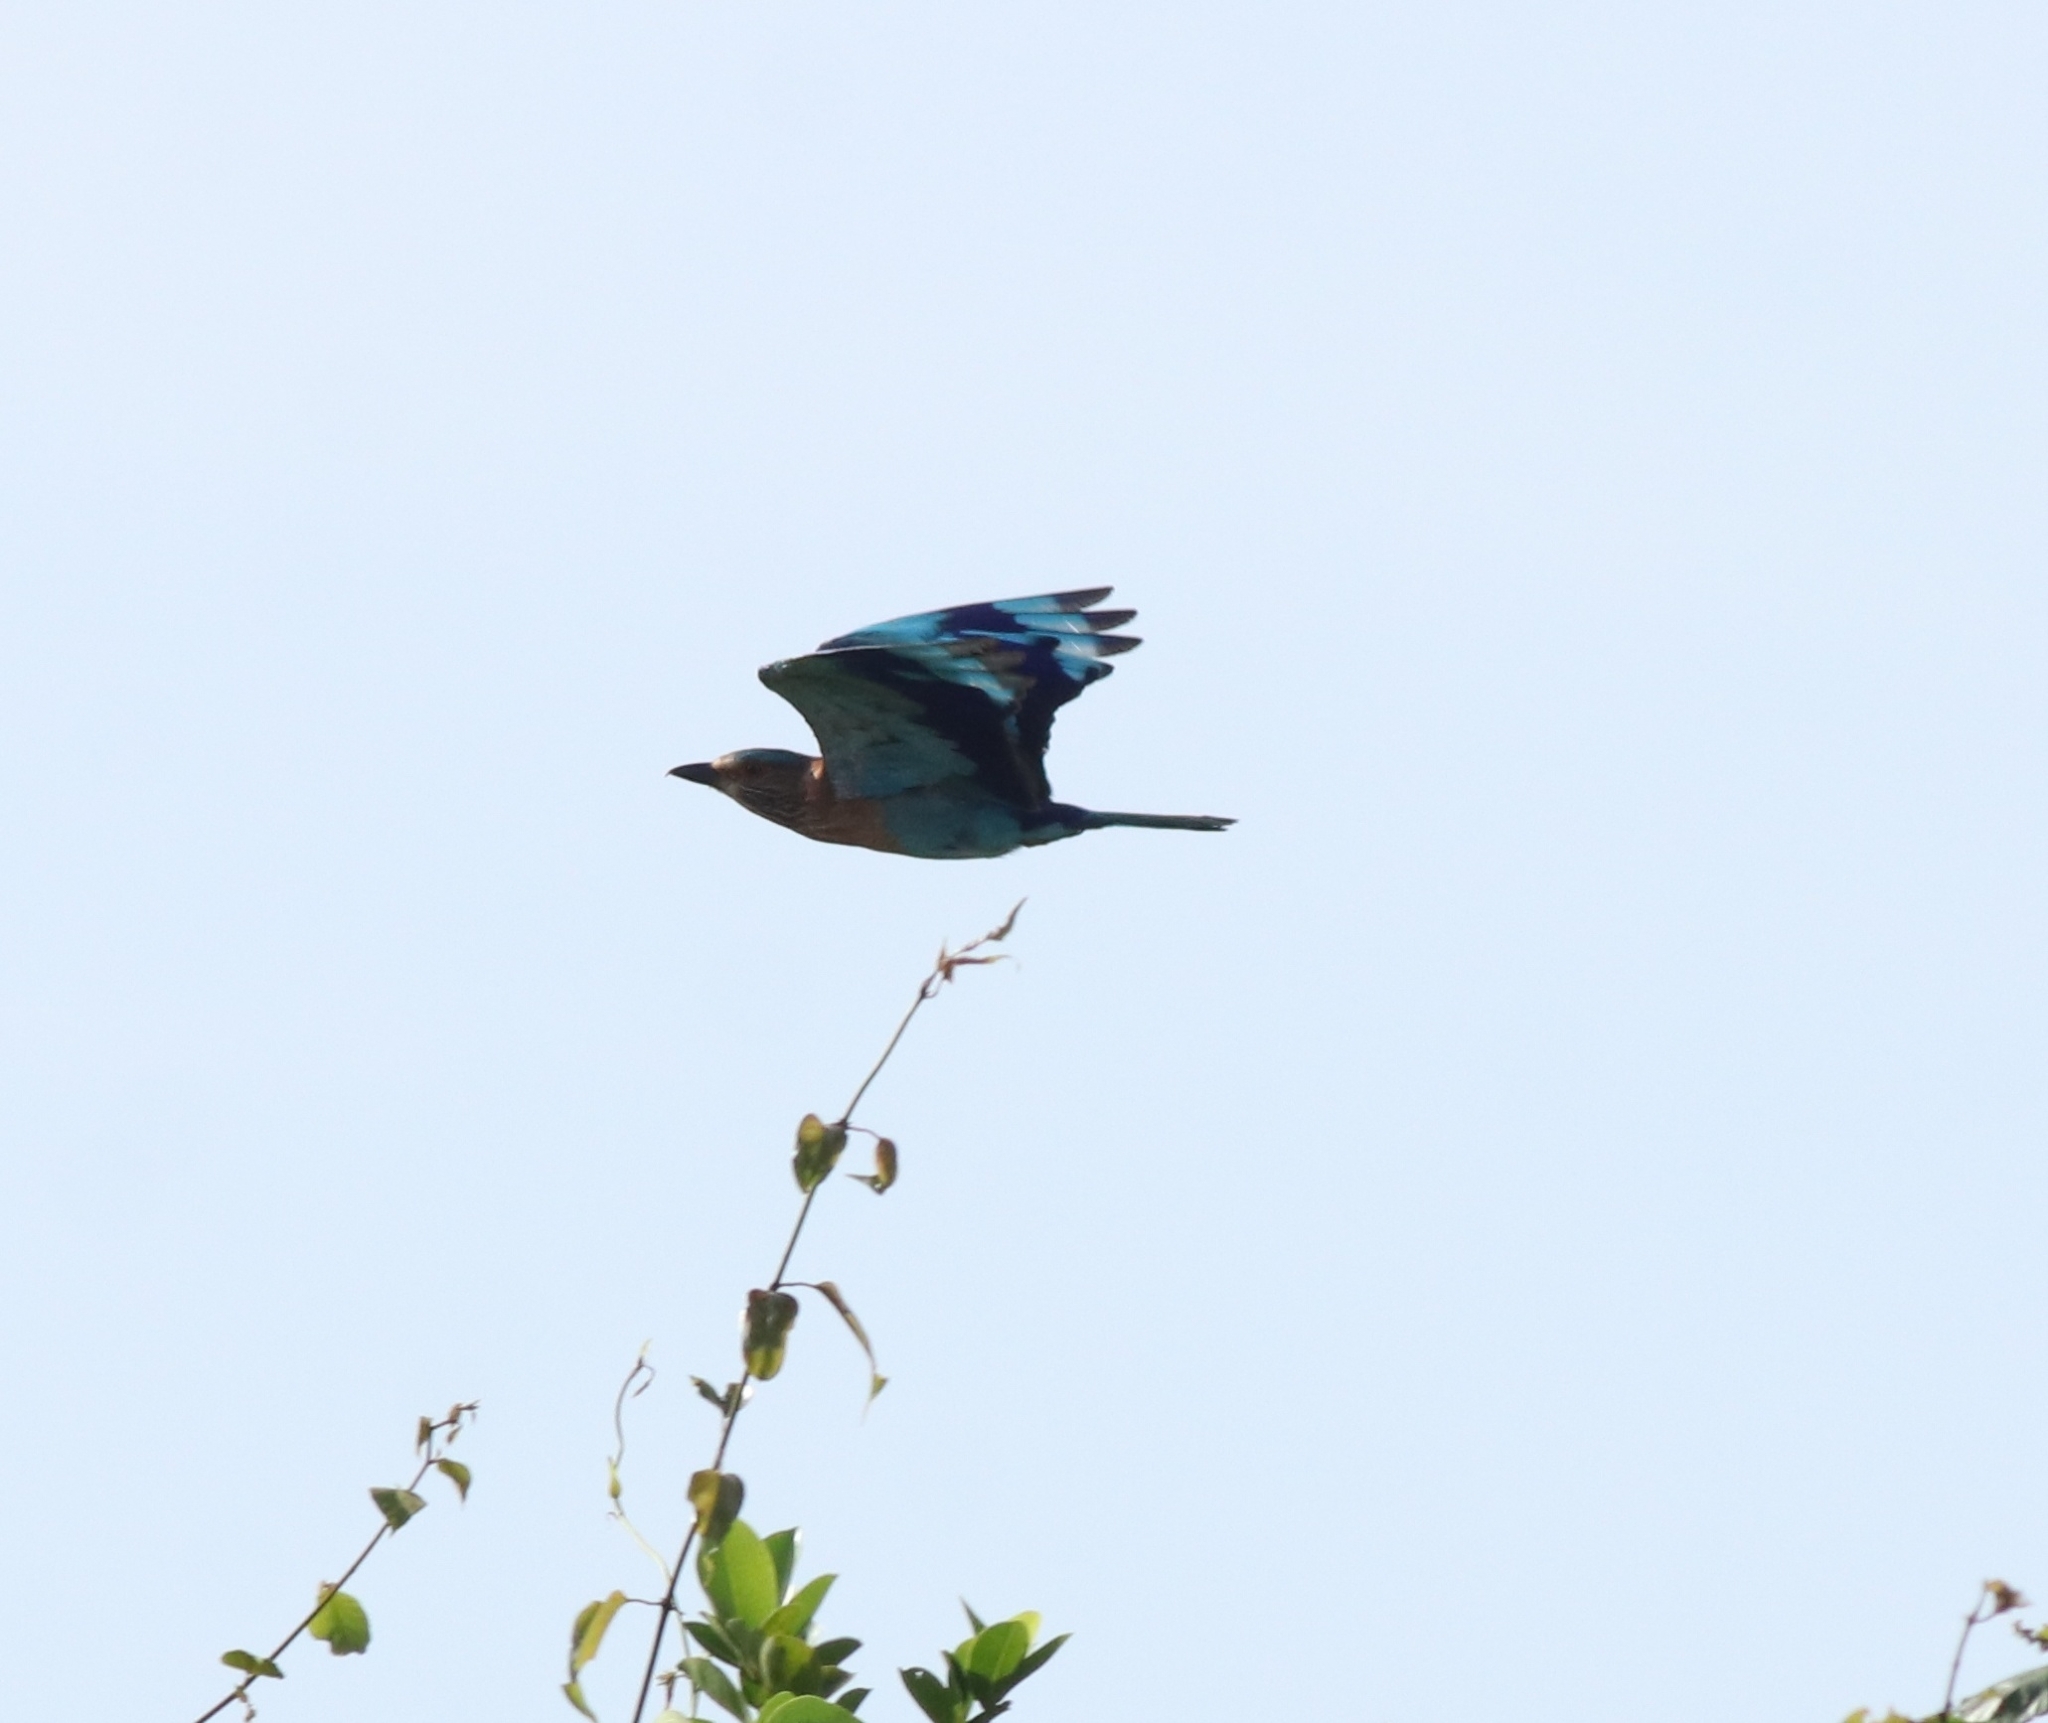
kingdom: Animalia
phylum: Chordata
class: Aves
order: Coraciiformes
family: Coraciidae
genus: Coracias
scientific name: Coracias benghalensis
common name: Indian roller
